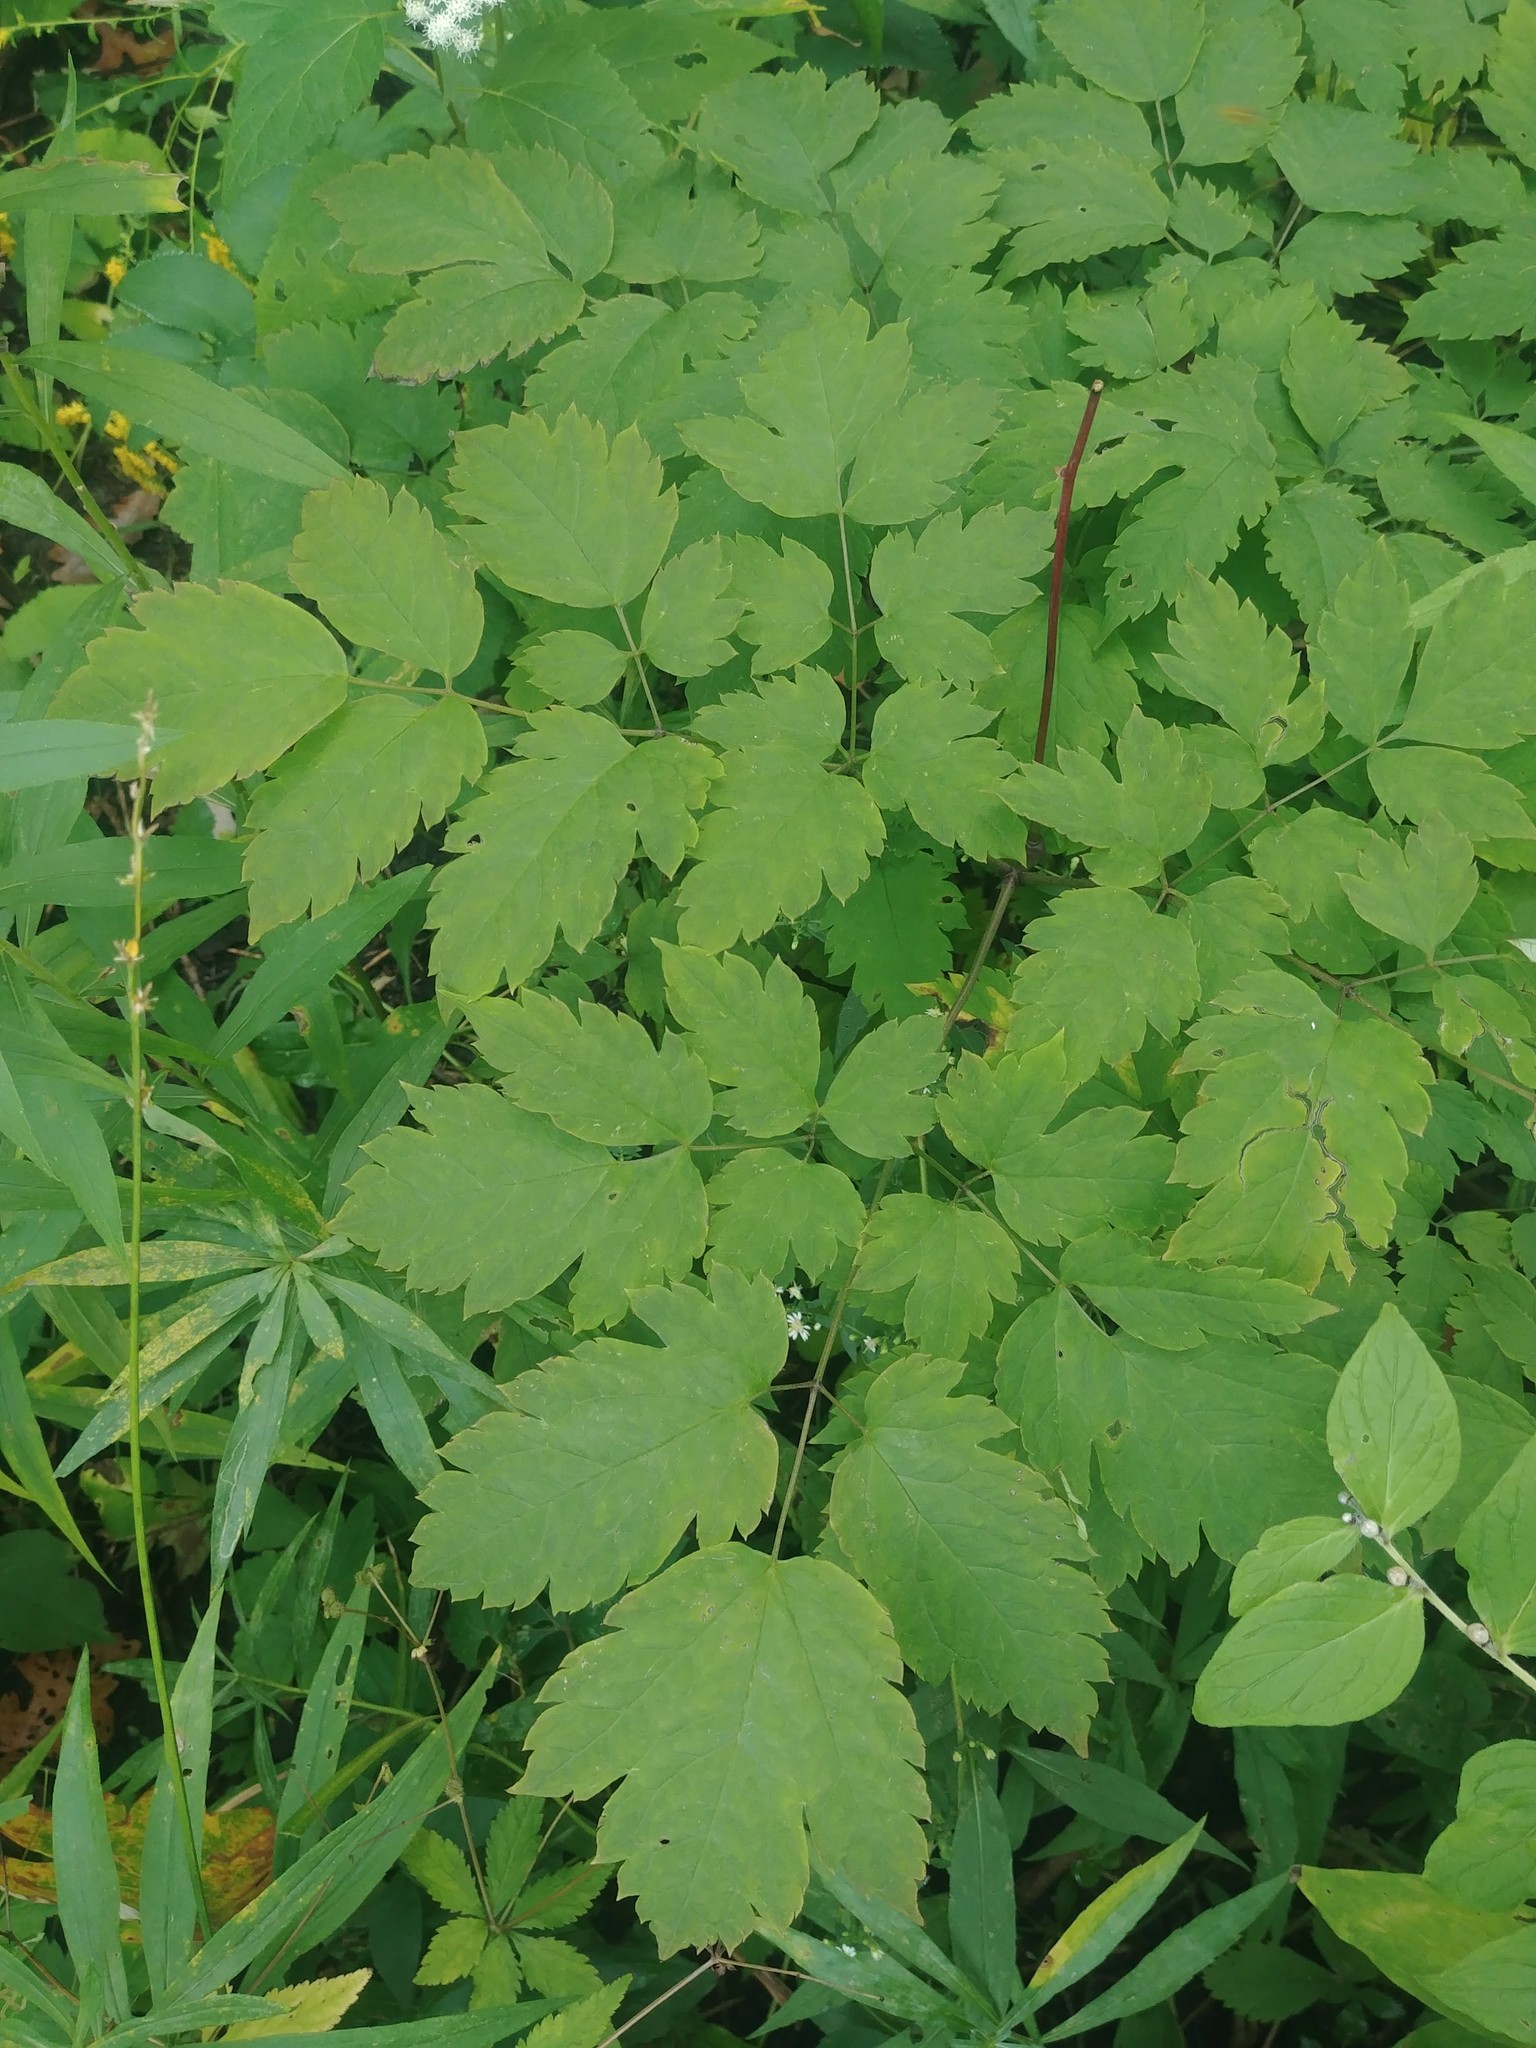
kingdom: Plantae
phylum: Tracheophyta
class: Magnoliopsida
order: Ranunculales
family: Ranunculaceae
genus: Actaea
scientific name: Actaea rubra
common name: Red baneberry
